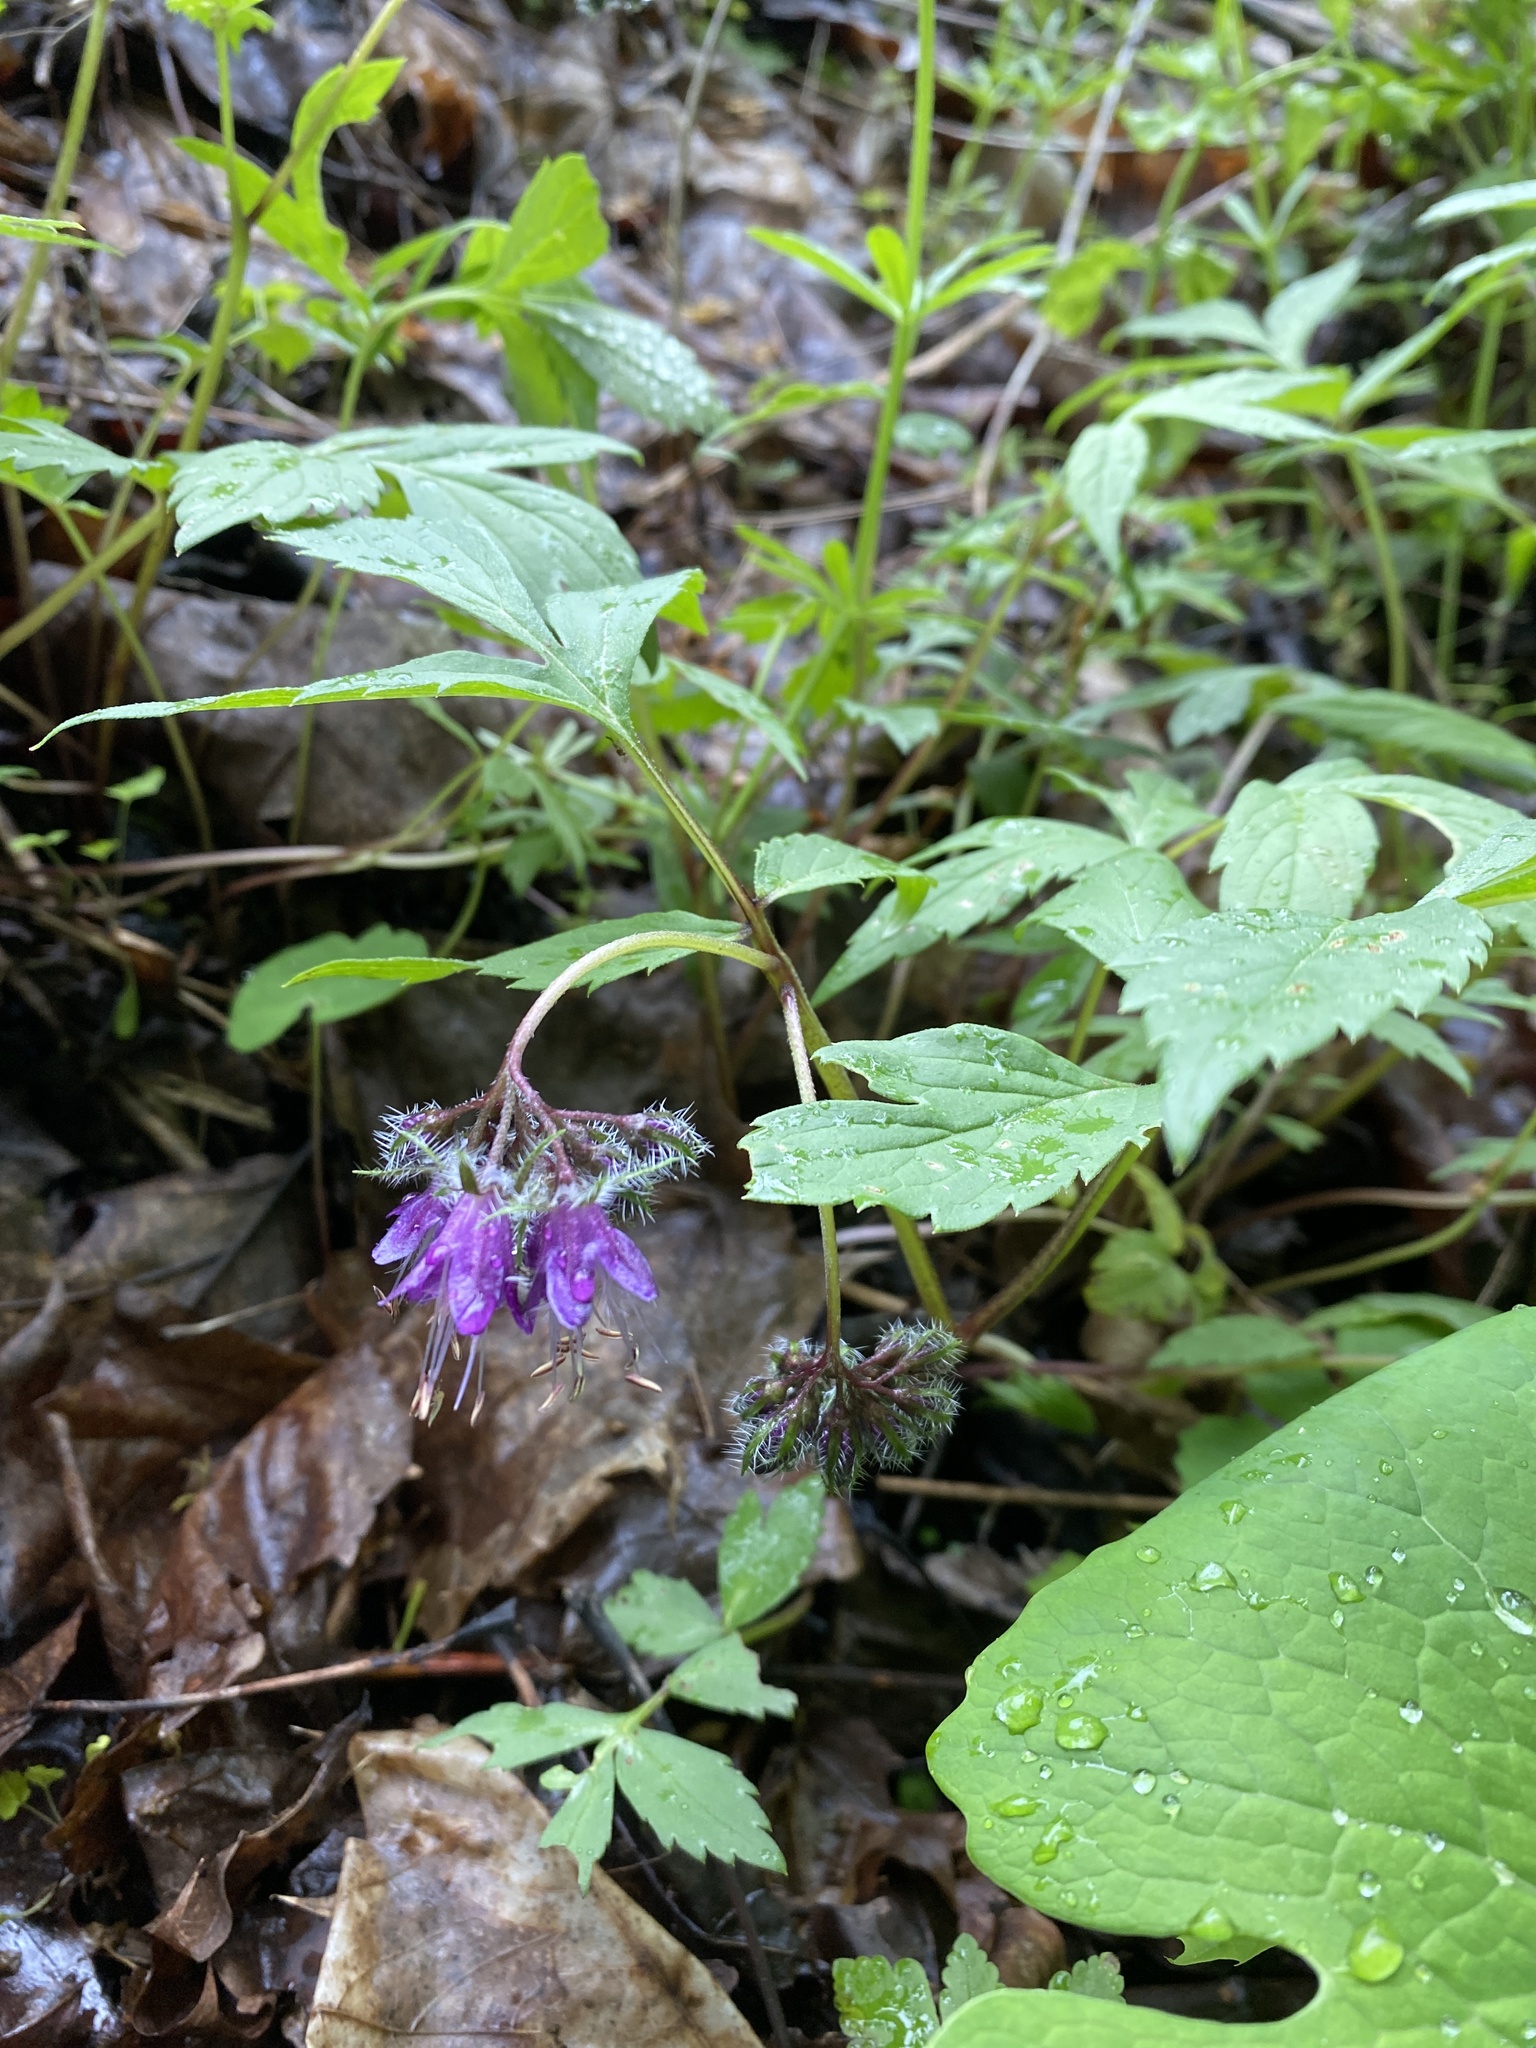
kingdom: Plantae
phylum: Tracheophyta
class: Magnoliopsida
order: Boraginales
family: Hydrophyllaceae
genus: Hydrophyllum
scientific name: Hydrophyllum virginianum
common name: Virginia waterleaf
